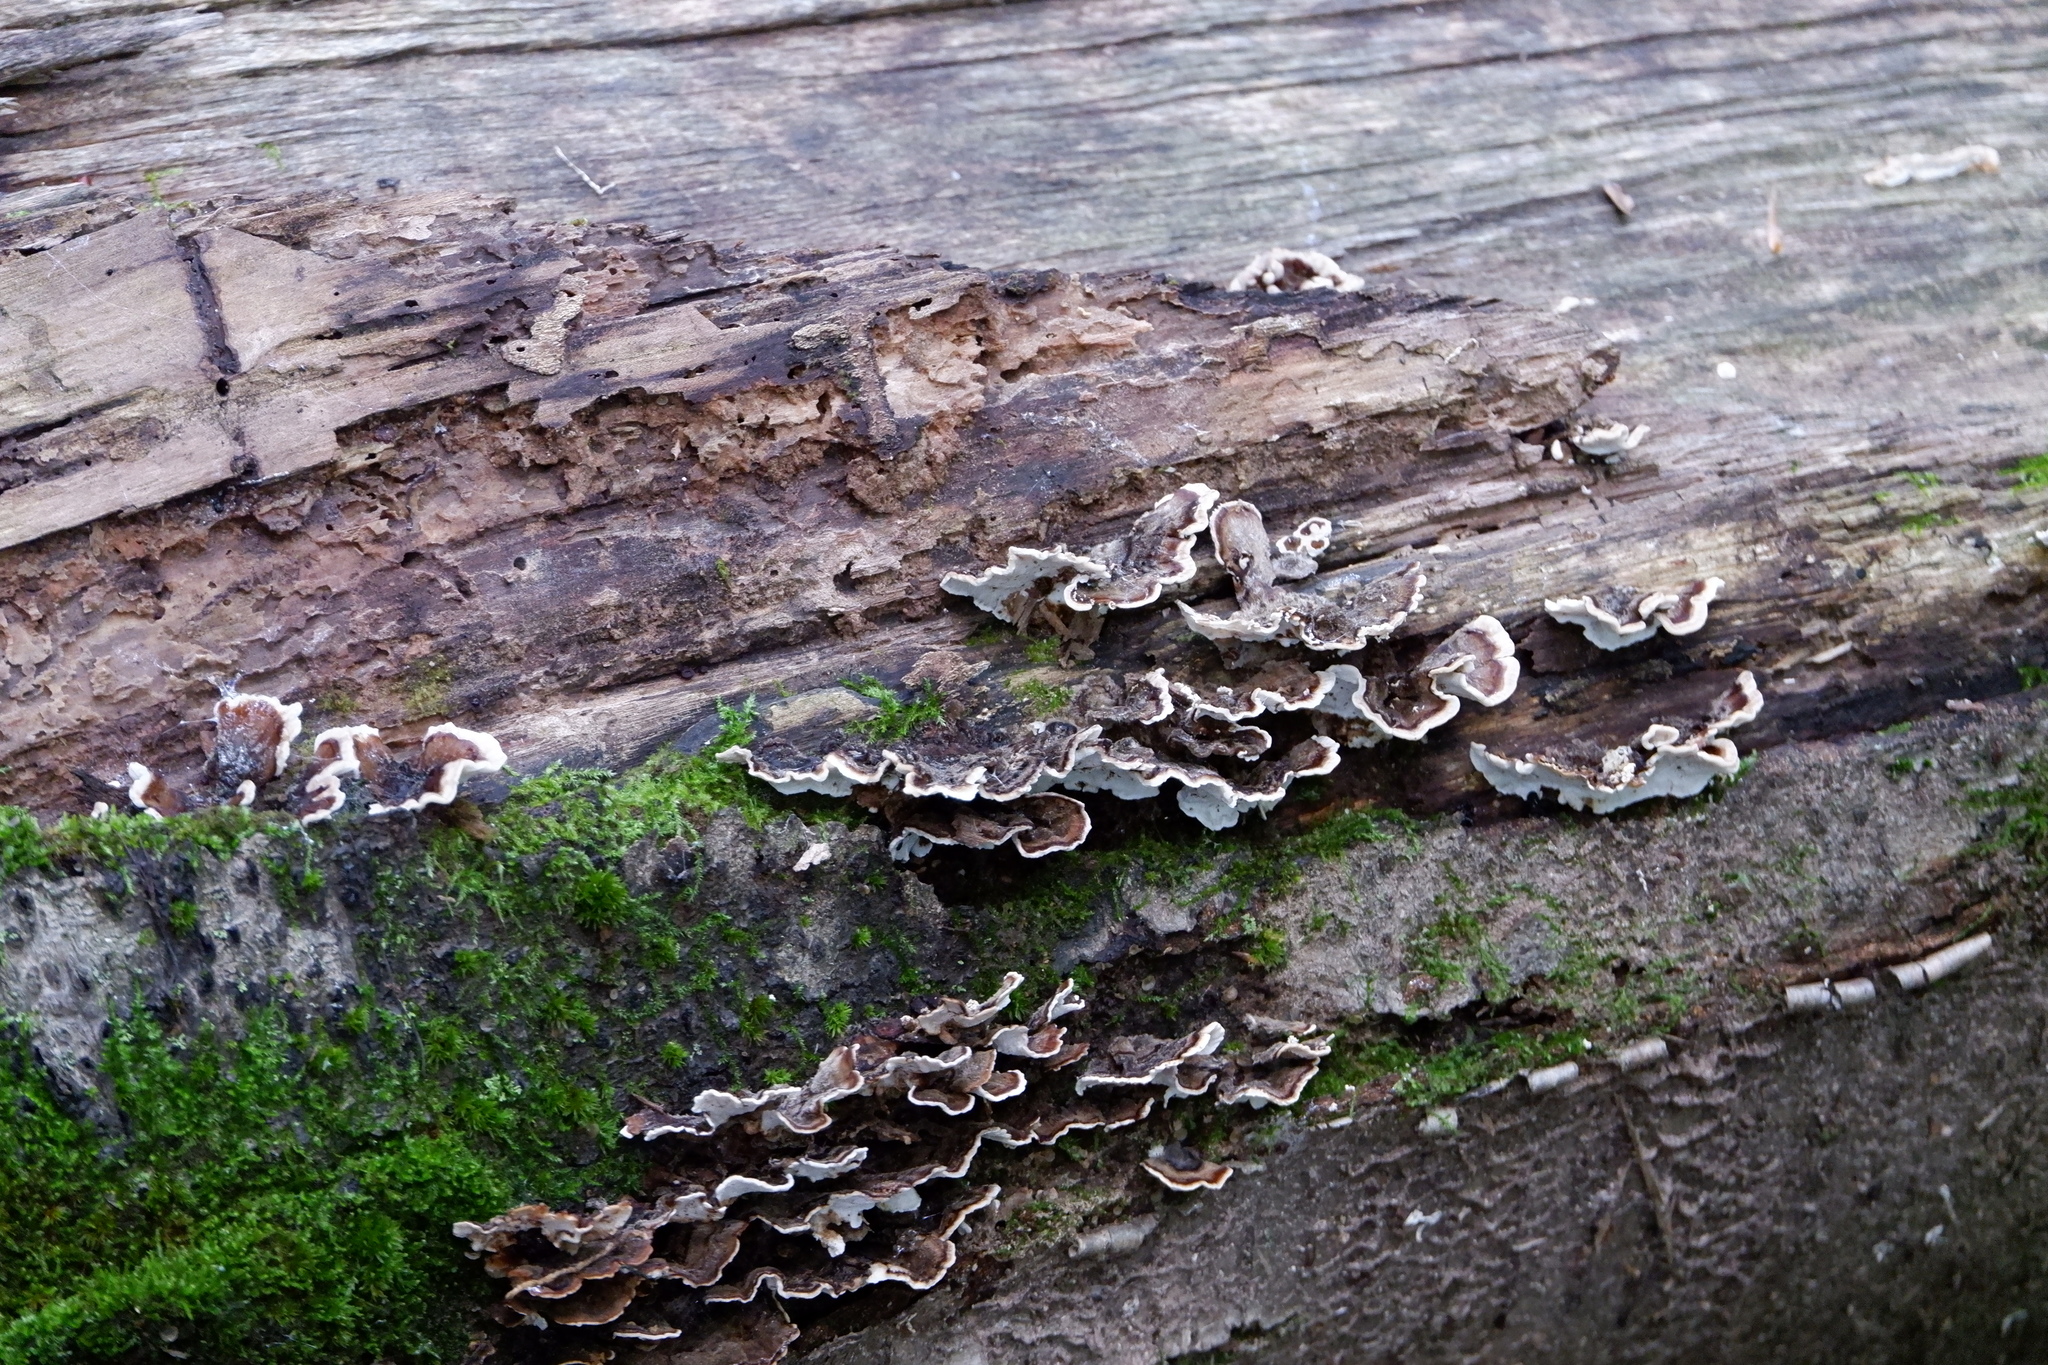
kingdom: Fungi
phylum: Basidiomycota
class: Agaricomycetes
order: Polyporales
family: Polyporaceae
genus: Trametes
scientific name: Trametes versicolor
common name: Turkeytail
